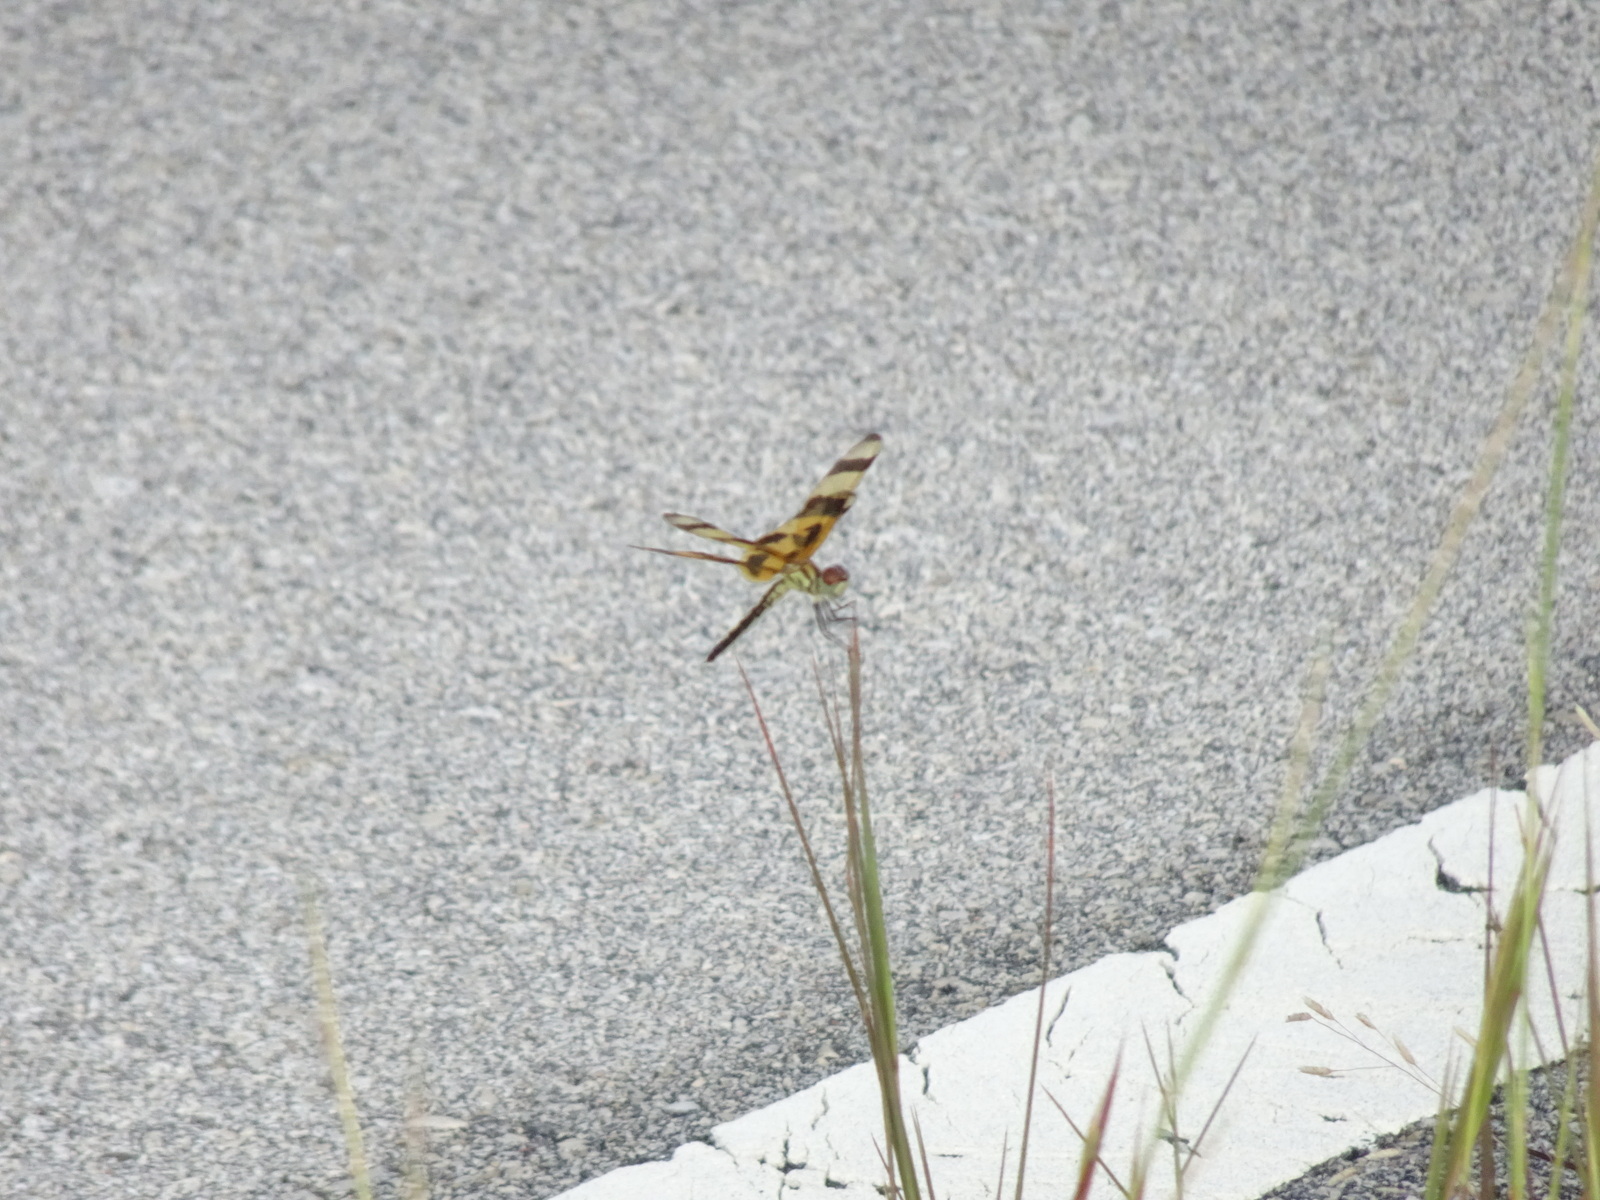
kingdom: Animalia
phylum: Arthropoda
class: Insecta
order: Odonata
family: Libellulidae
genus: Celithemis
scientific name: Celithemis eponina
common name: Halloween pennant
